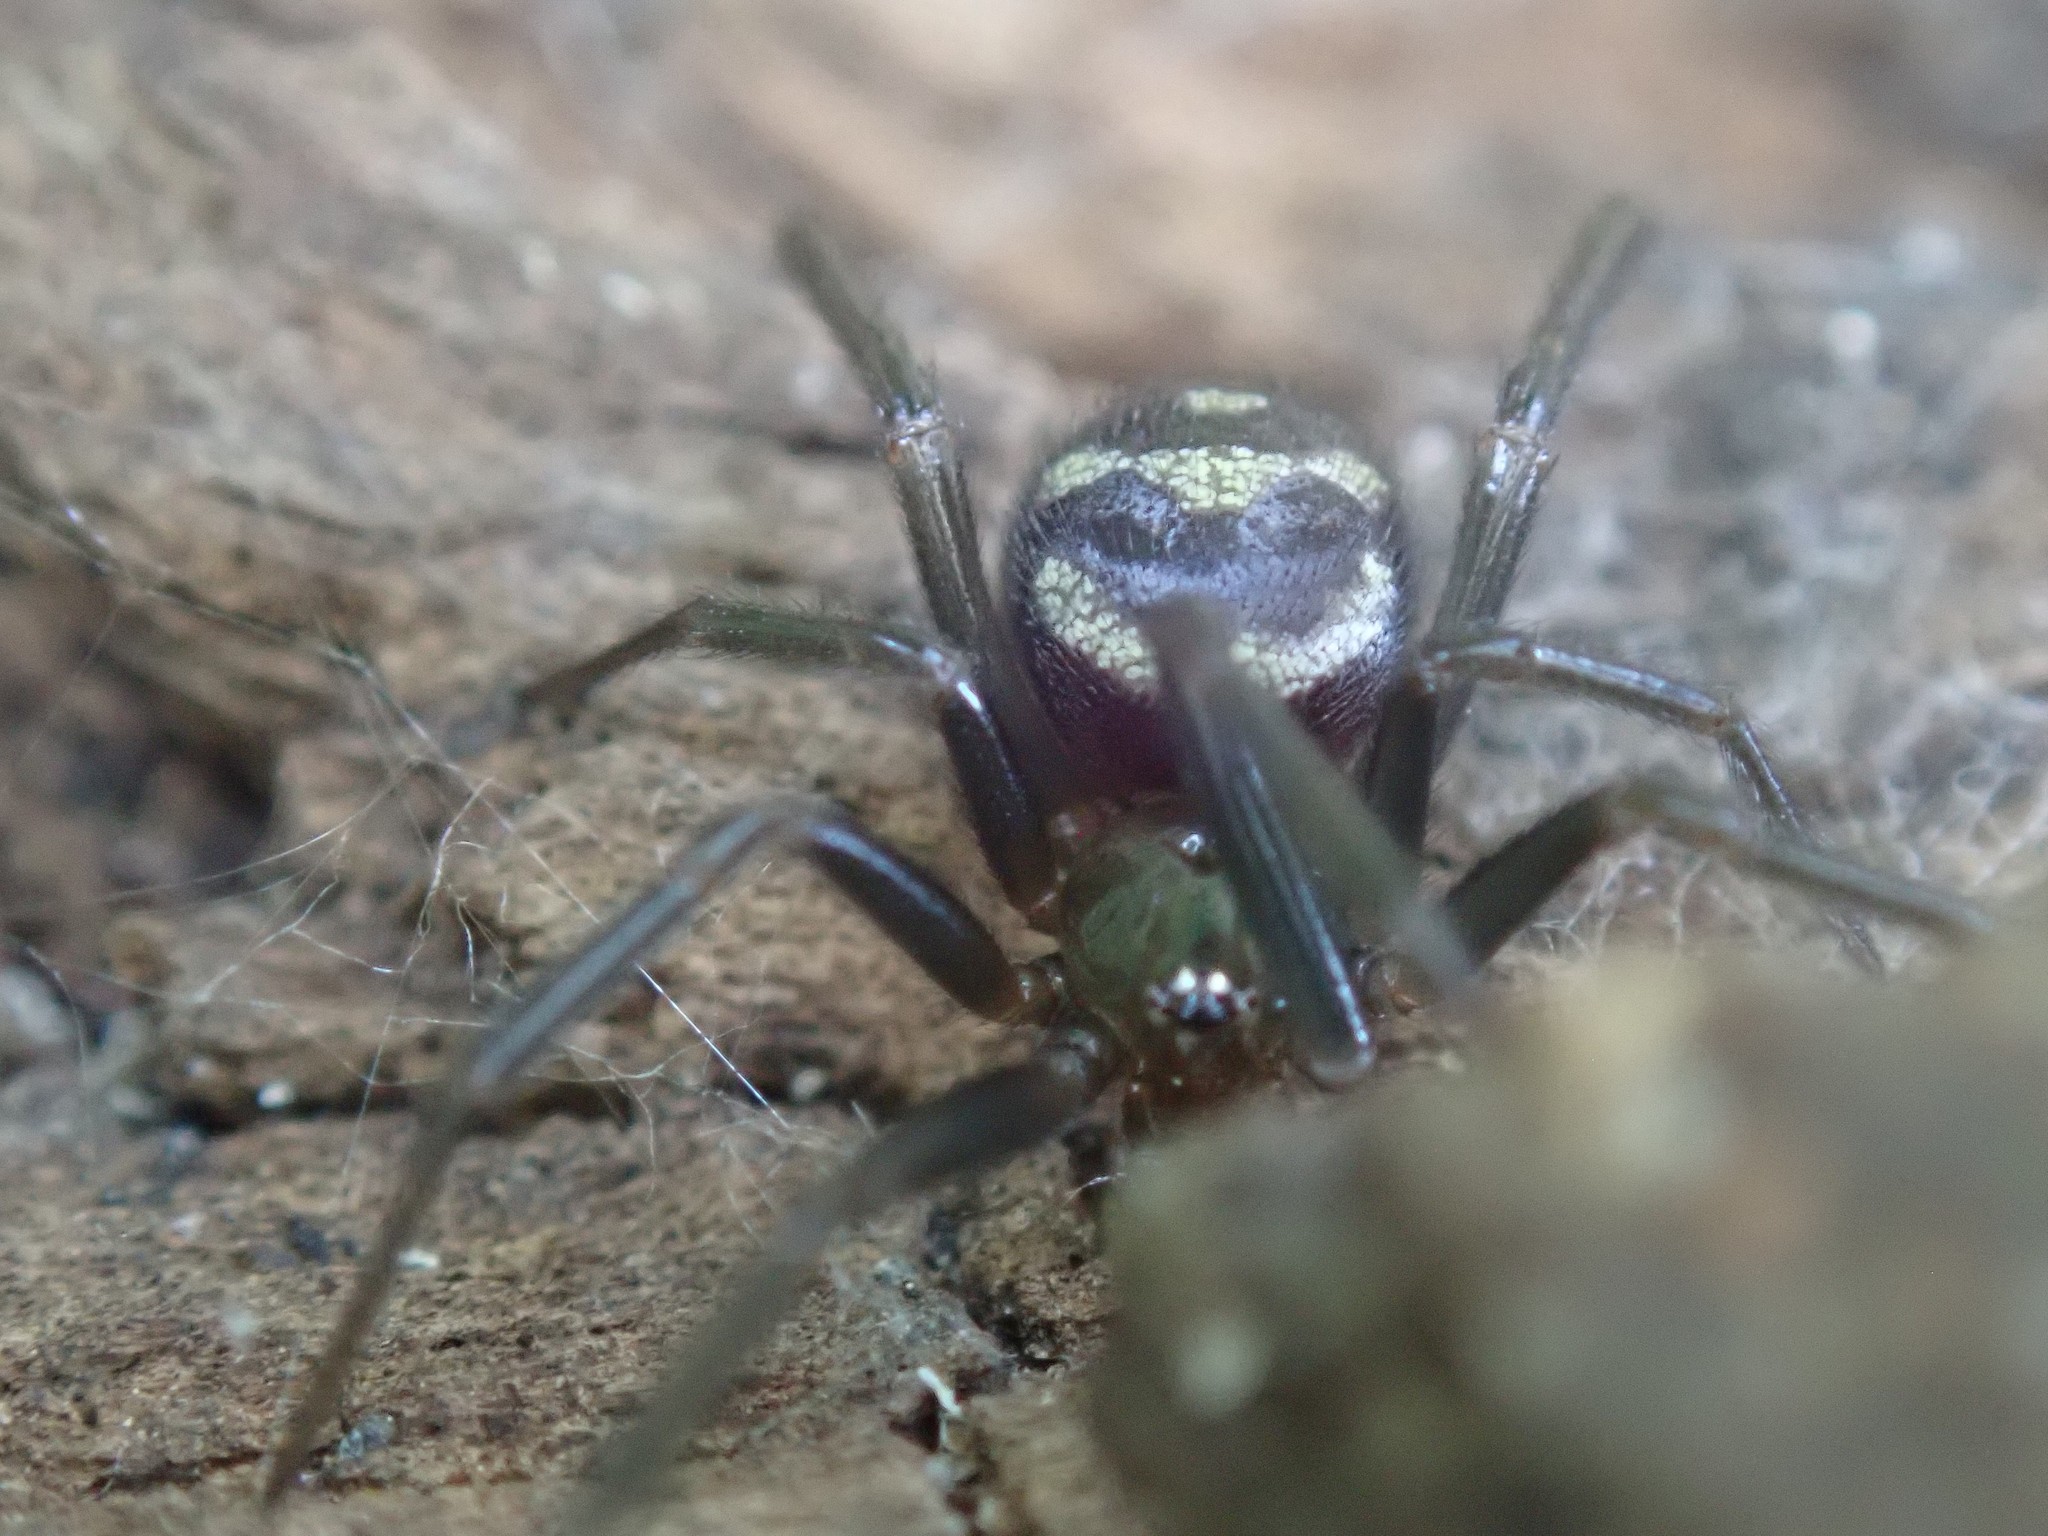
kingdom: Animalia
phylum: Arthropoda
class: Arachnida
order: Araneae
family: Theridiidae
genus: Steatoda
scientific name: Steatoda grossa
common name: False black widow
